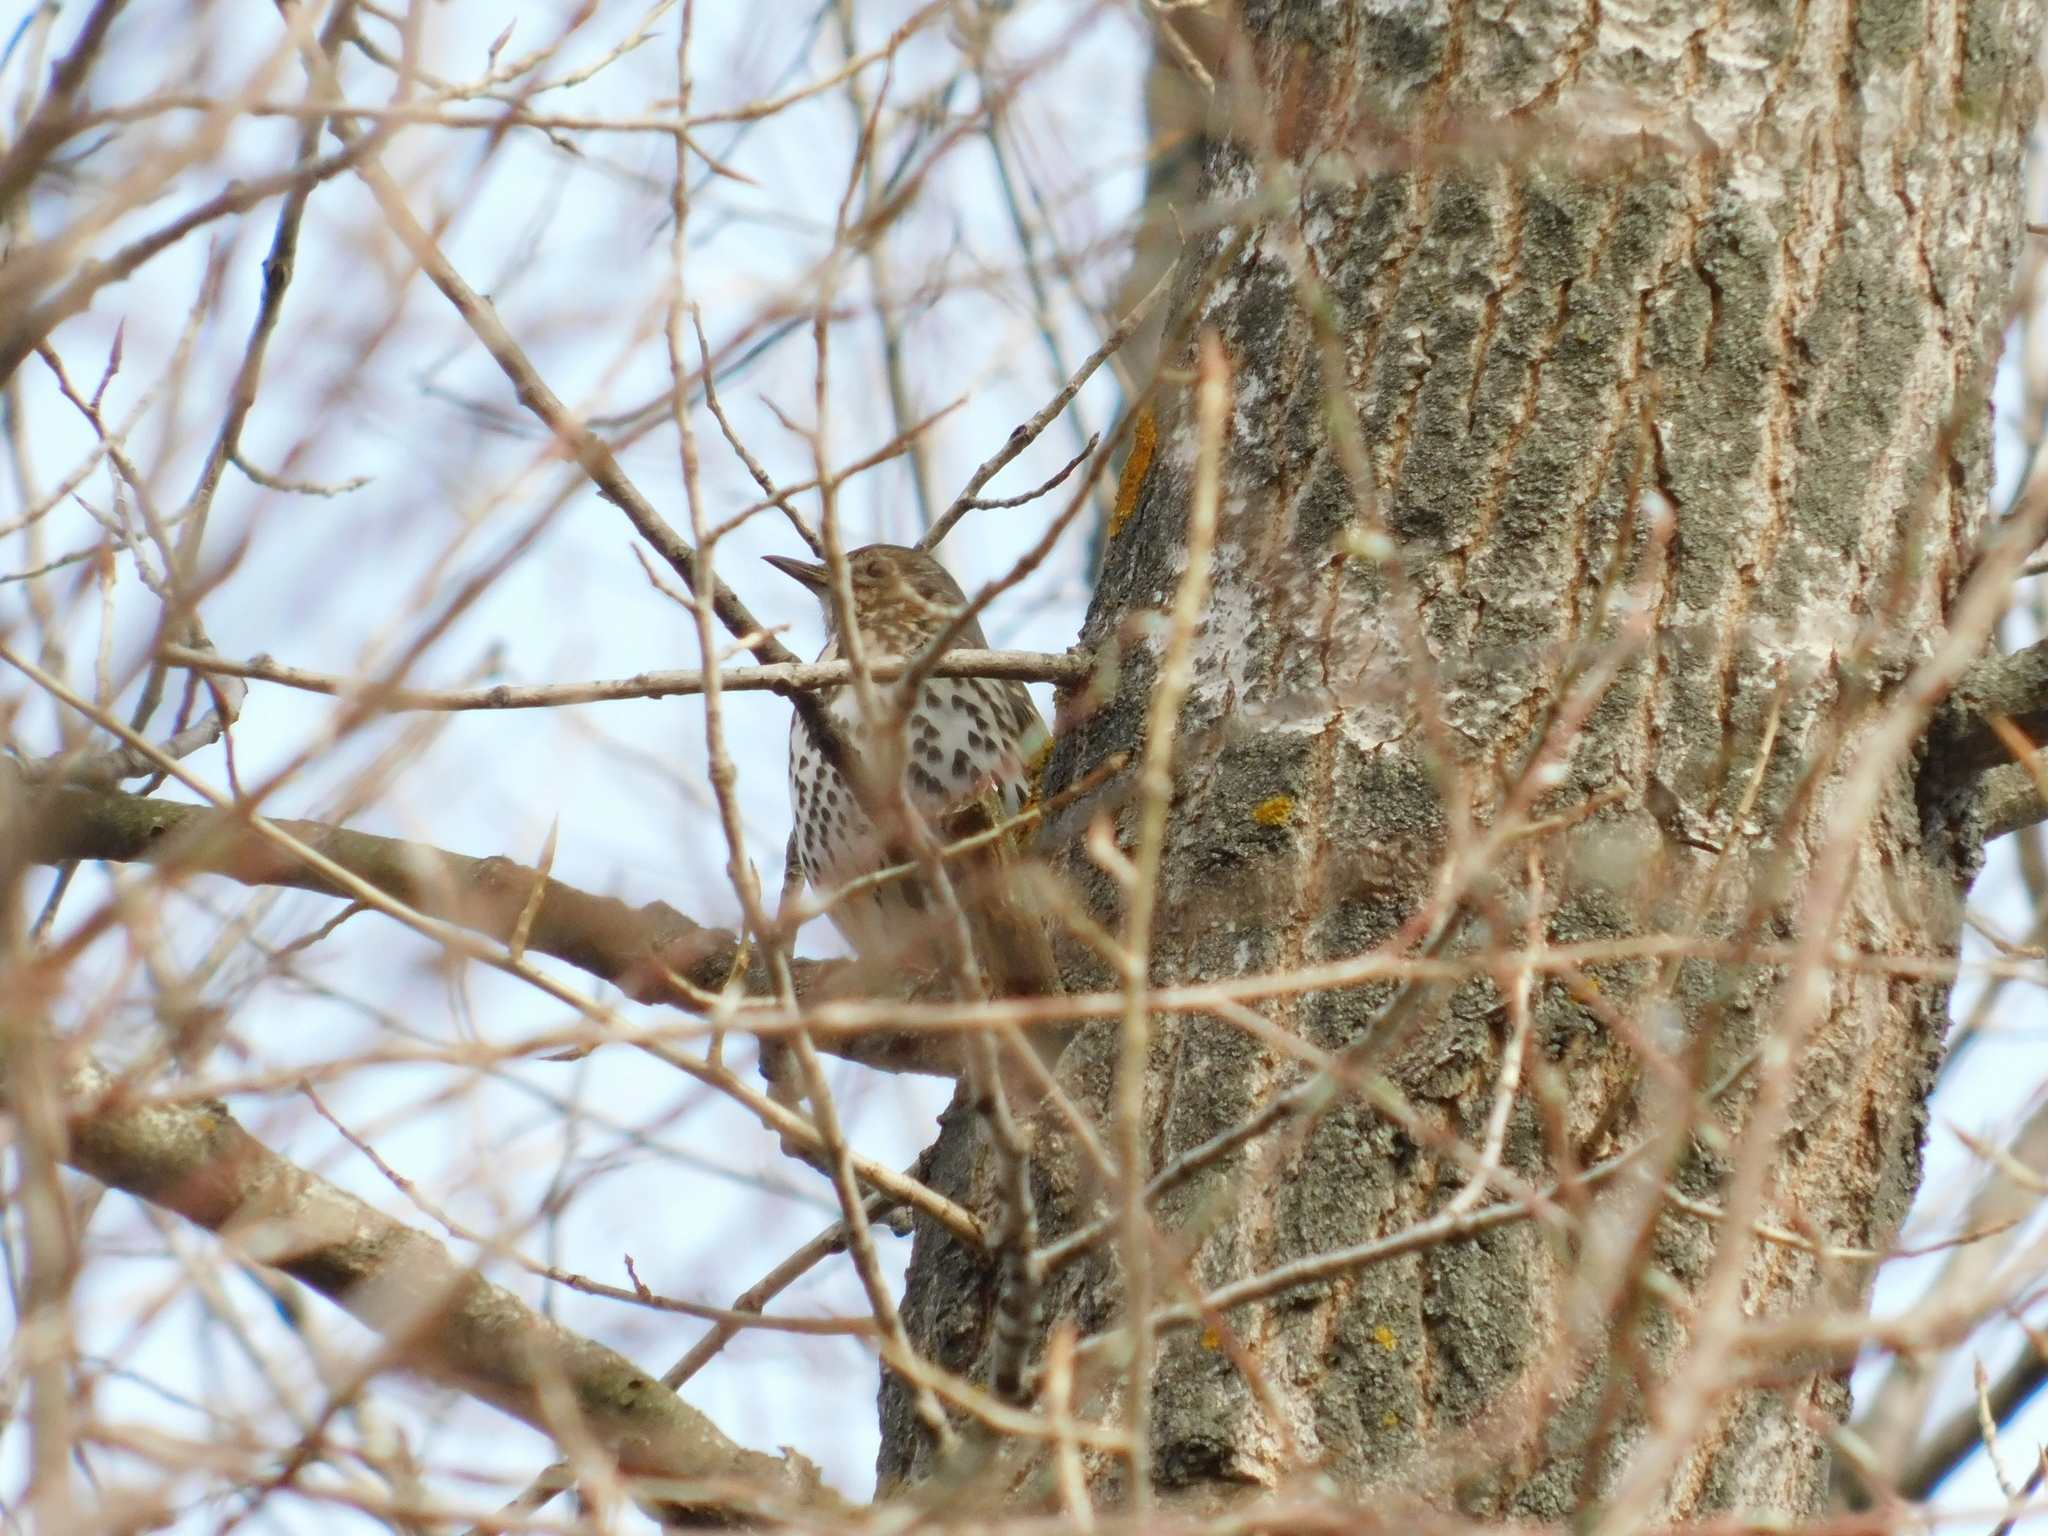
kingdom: Animalia
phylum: Chordata
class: Aves
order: Passeriformes
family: Turdidae
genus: Turdus
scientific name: Turdus philomelos
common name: Song thrush
